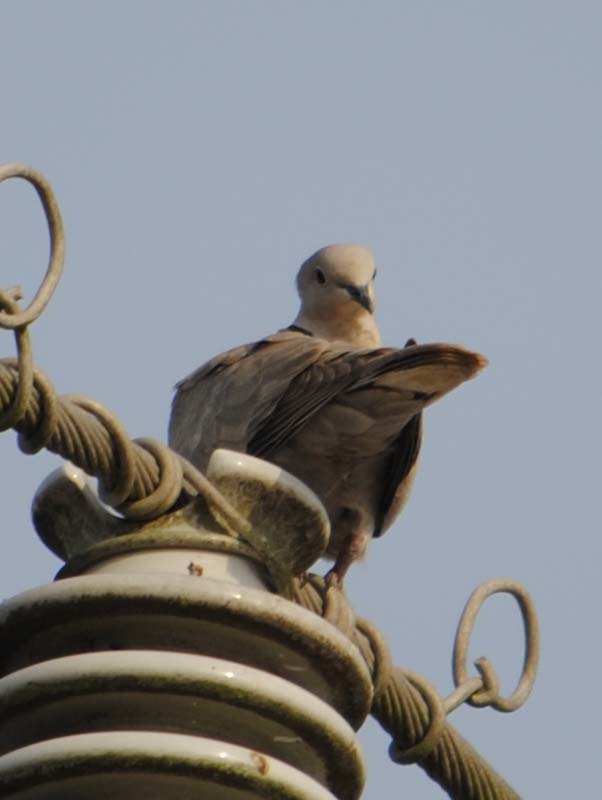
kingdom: Animalia
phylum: Chordata
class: Aves
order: Columbiformes
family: Columbidae
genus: Streptopelia
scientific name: Streptopelia decaocto
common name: Eurasian collared dove
